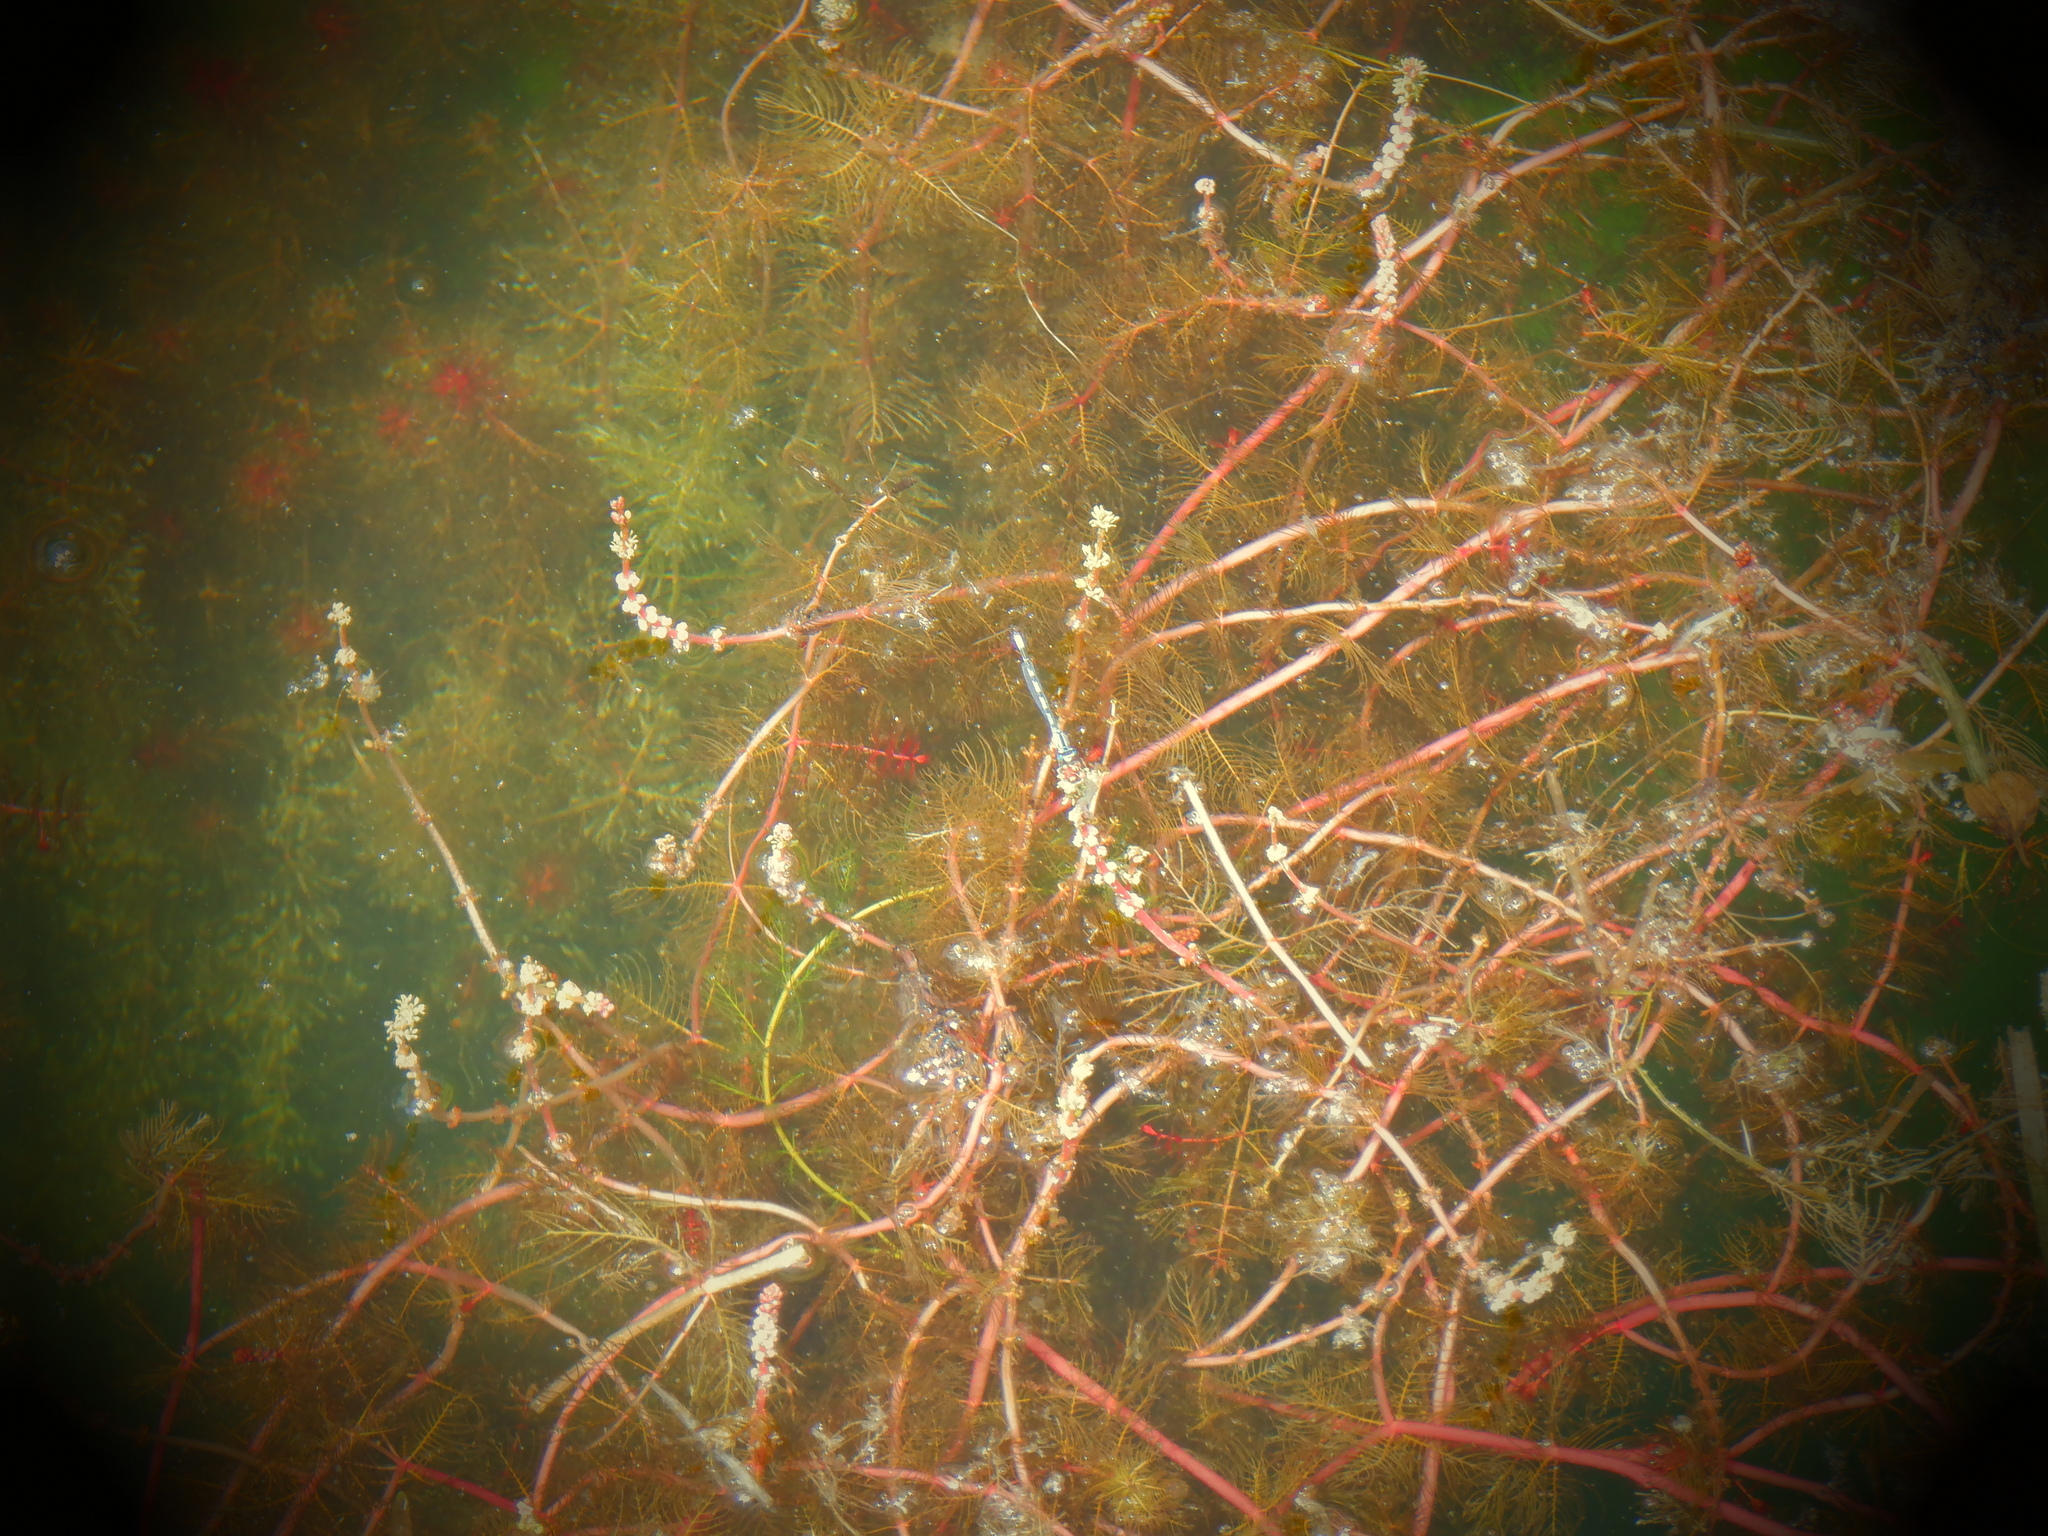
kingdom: Animalia
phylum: Arthropoda
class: Insecta
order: Odonata
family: Coenagrionidae
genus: Enallagma
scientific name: Enallagma
